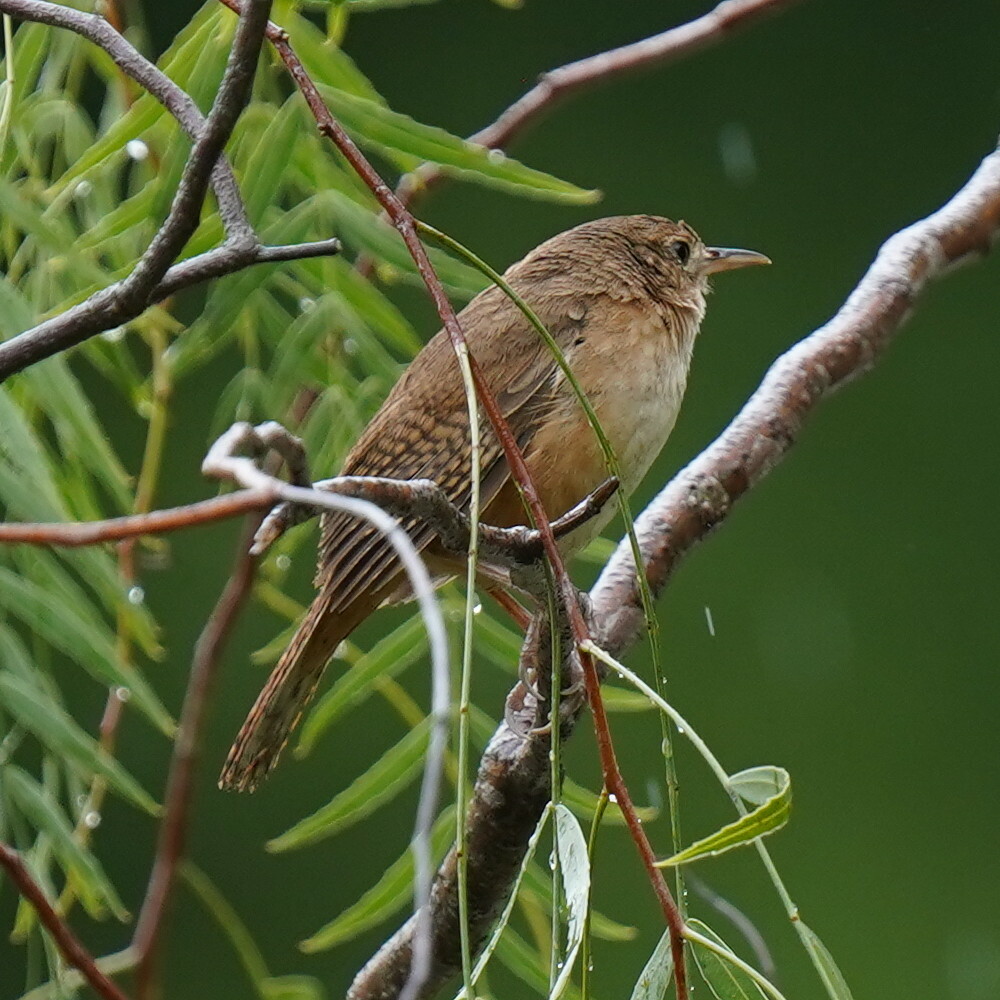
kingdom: Animalia
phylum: Chordata
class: Aves
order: Passeriformes
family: Troglodytidae
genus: Troglodytes
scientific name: Troglodytes aedon
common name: House wren
